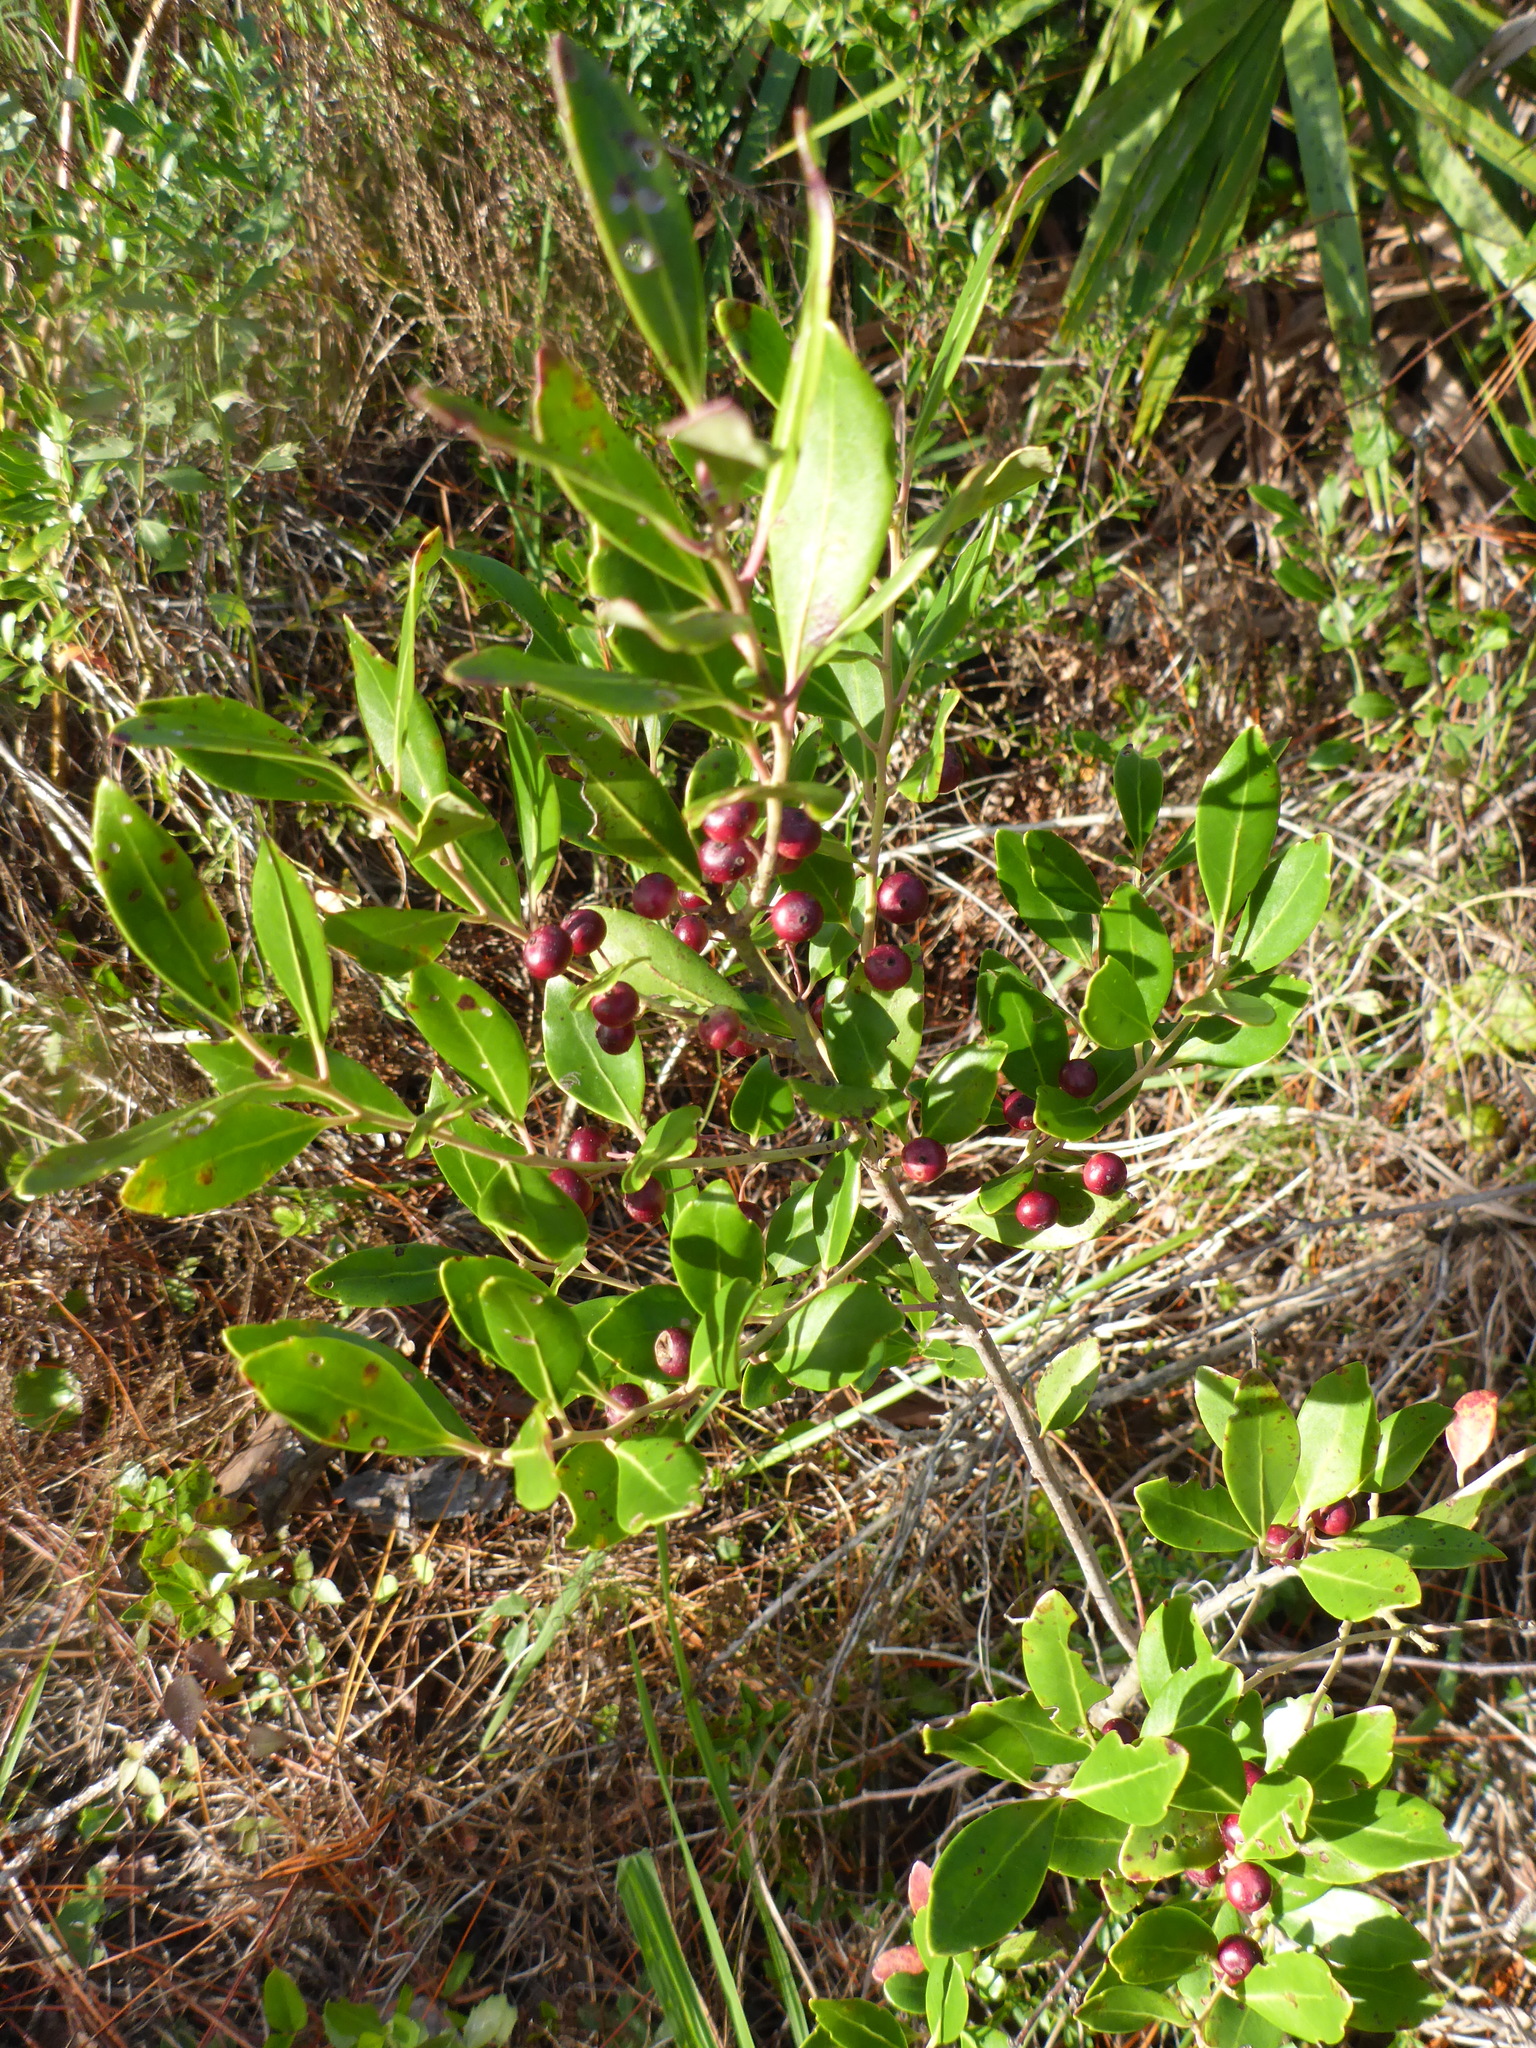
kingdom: Plantae
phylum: Tracheophyta
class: Magnoliopsida
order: Aquifoliales
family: Aquifoliaceae
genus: Ilex
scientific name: Ilex glabra
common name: Bitter gallberry
